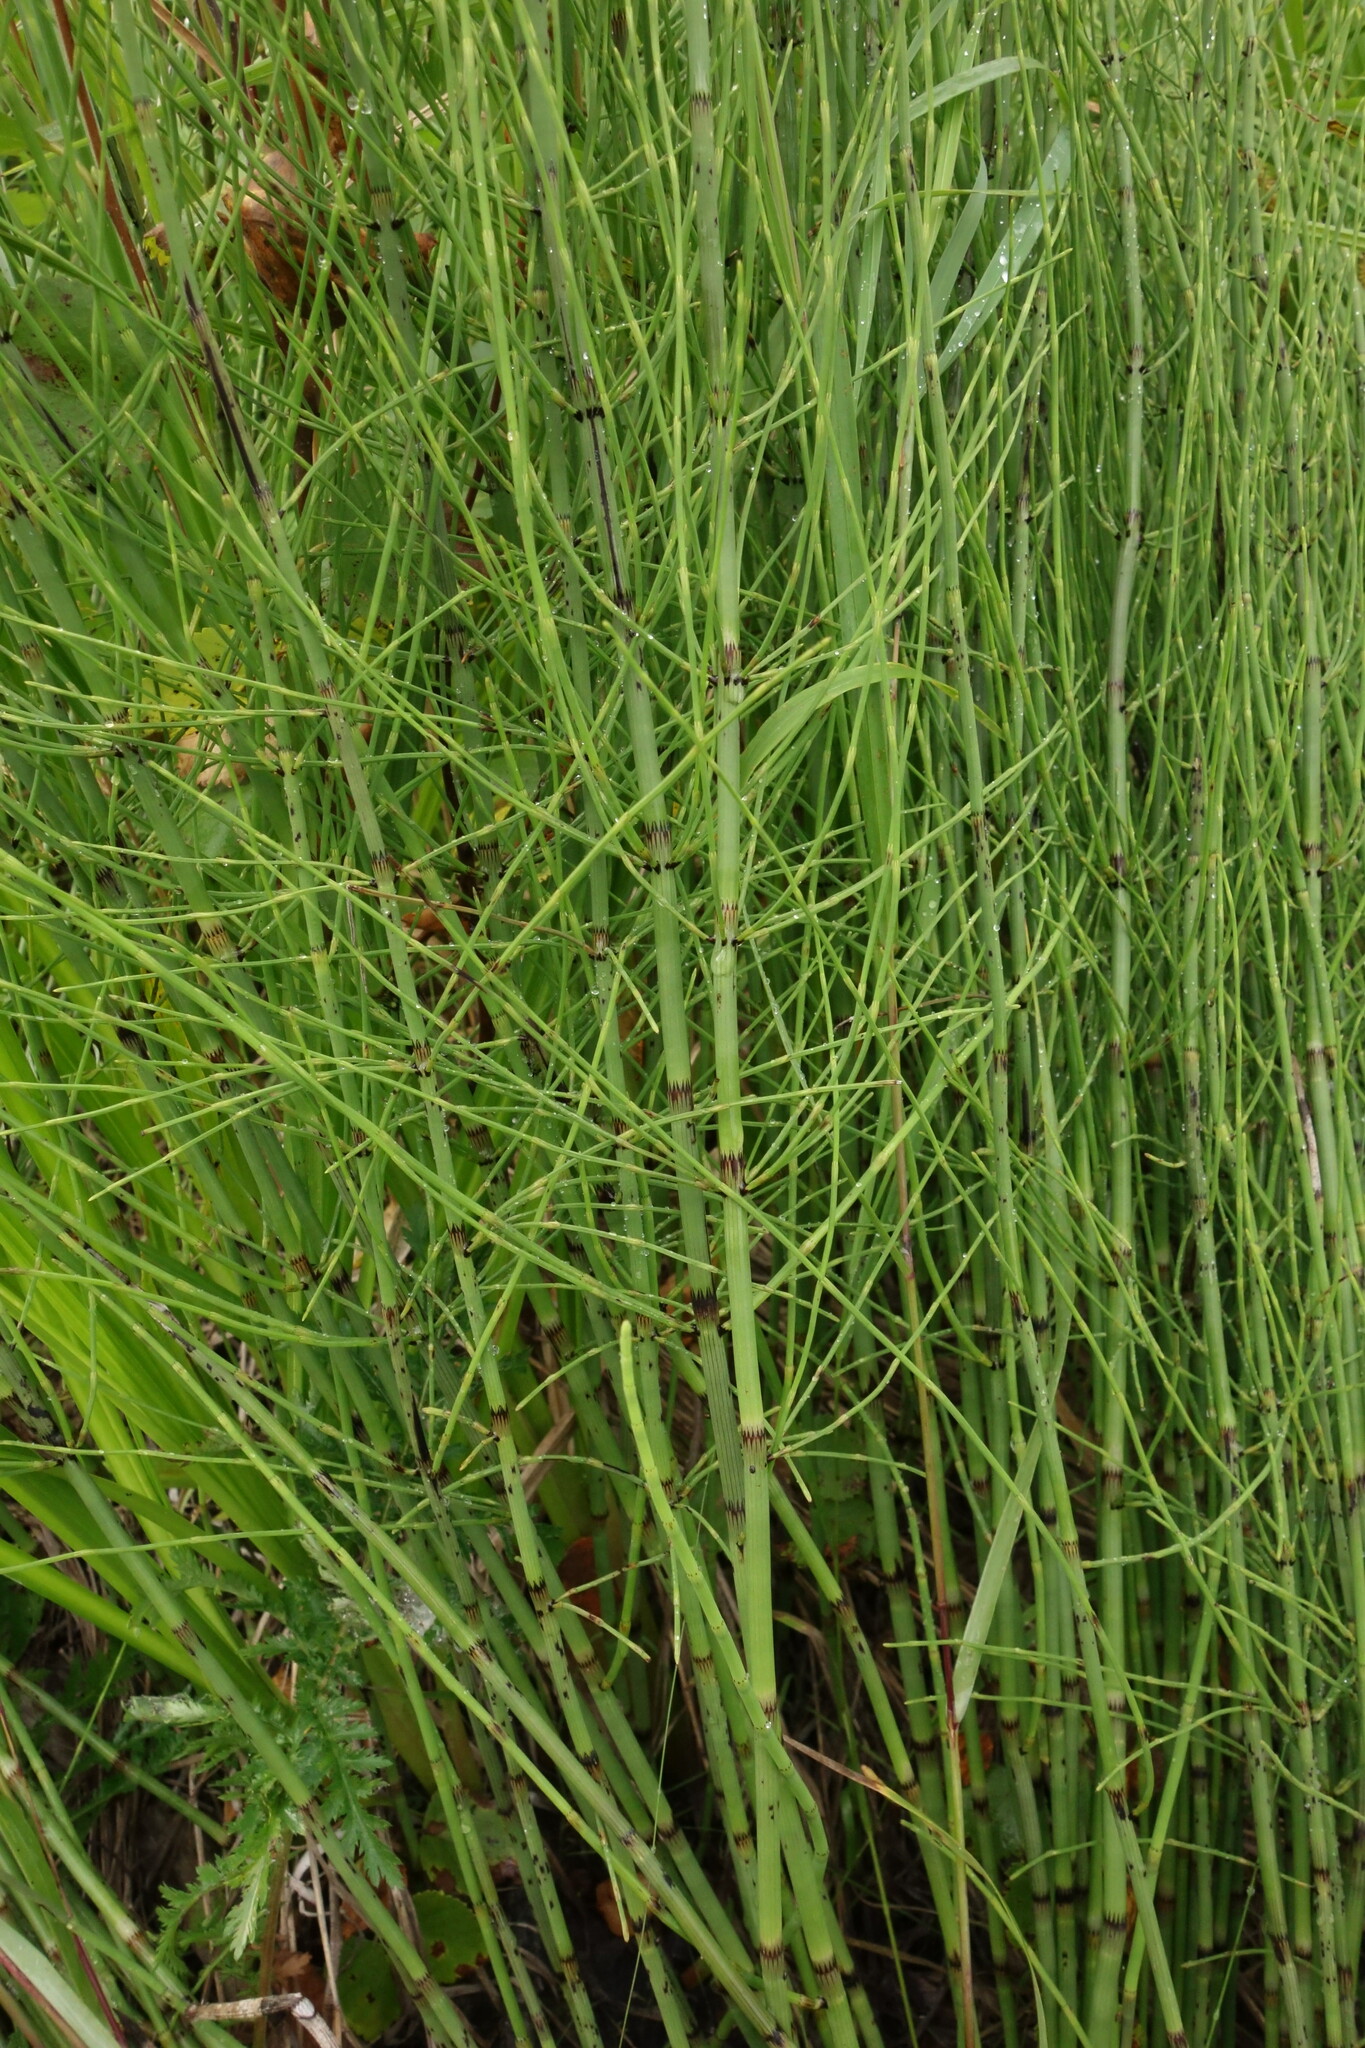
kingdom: Plantae
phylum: Tracheophyta
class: Polypodiopsida
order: Equisetales
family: Equisetaceae
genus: Equisetum
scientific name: Equisetum fluviatile
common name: Water horsetail
